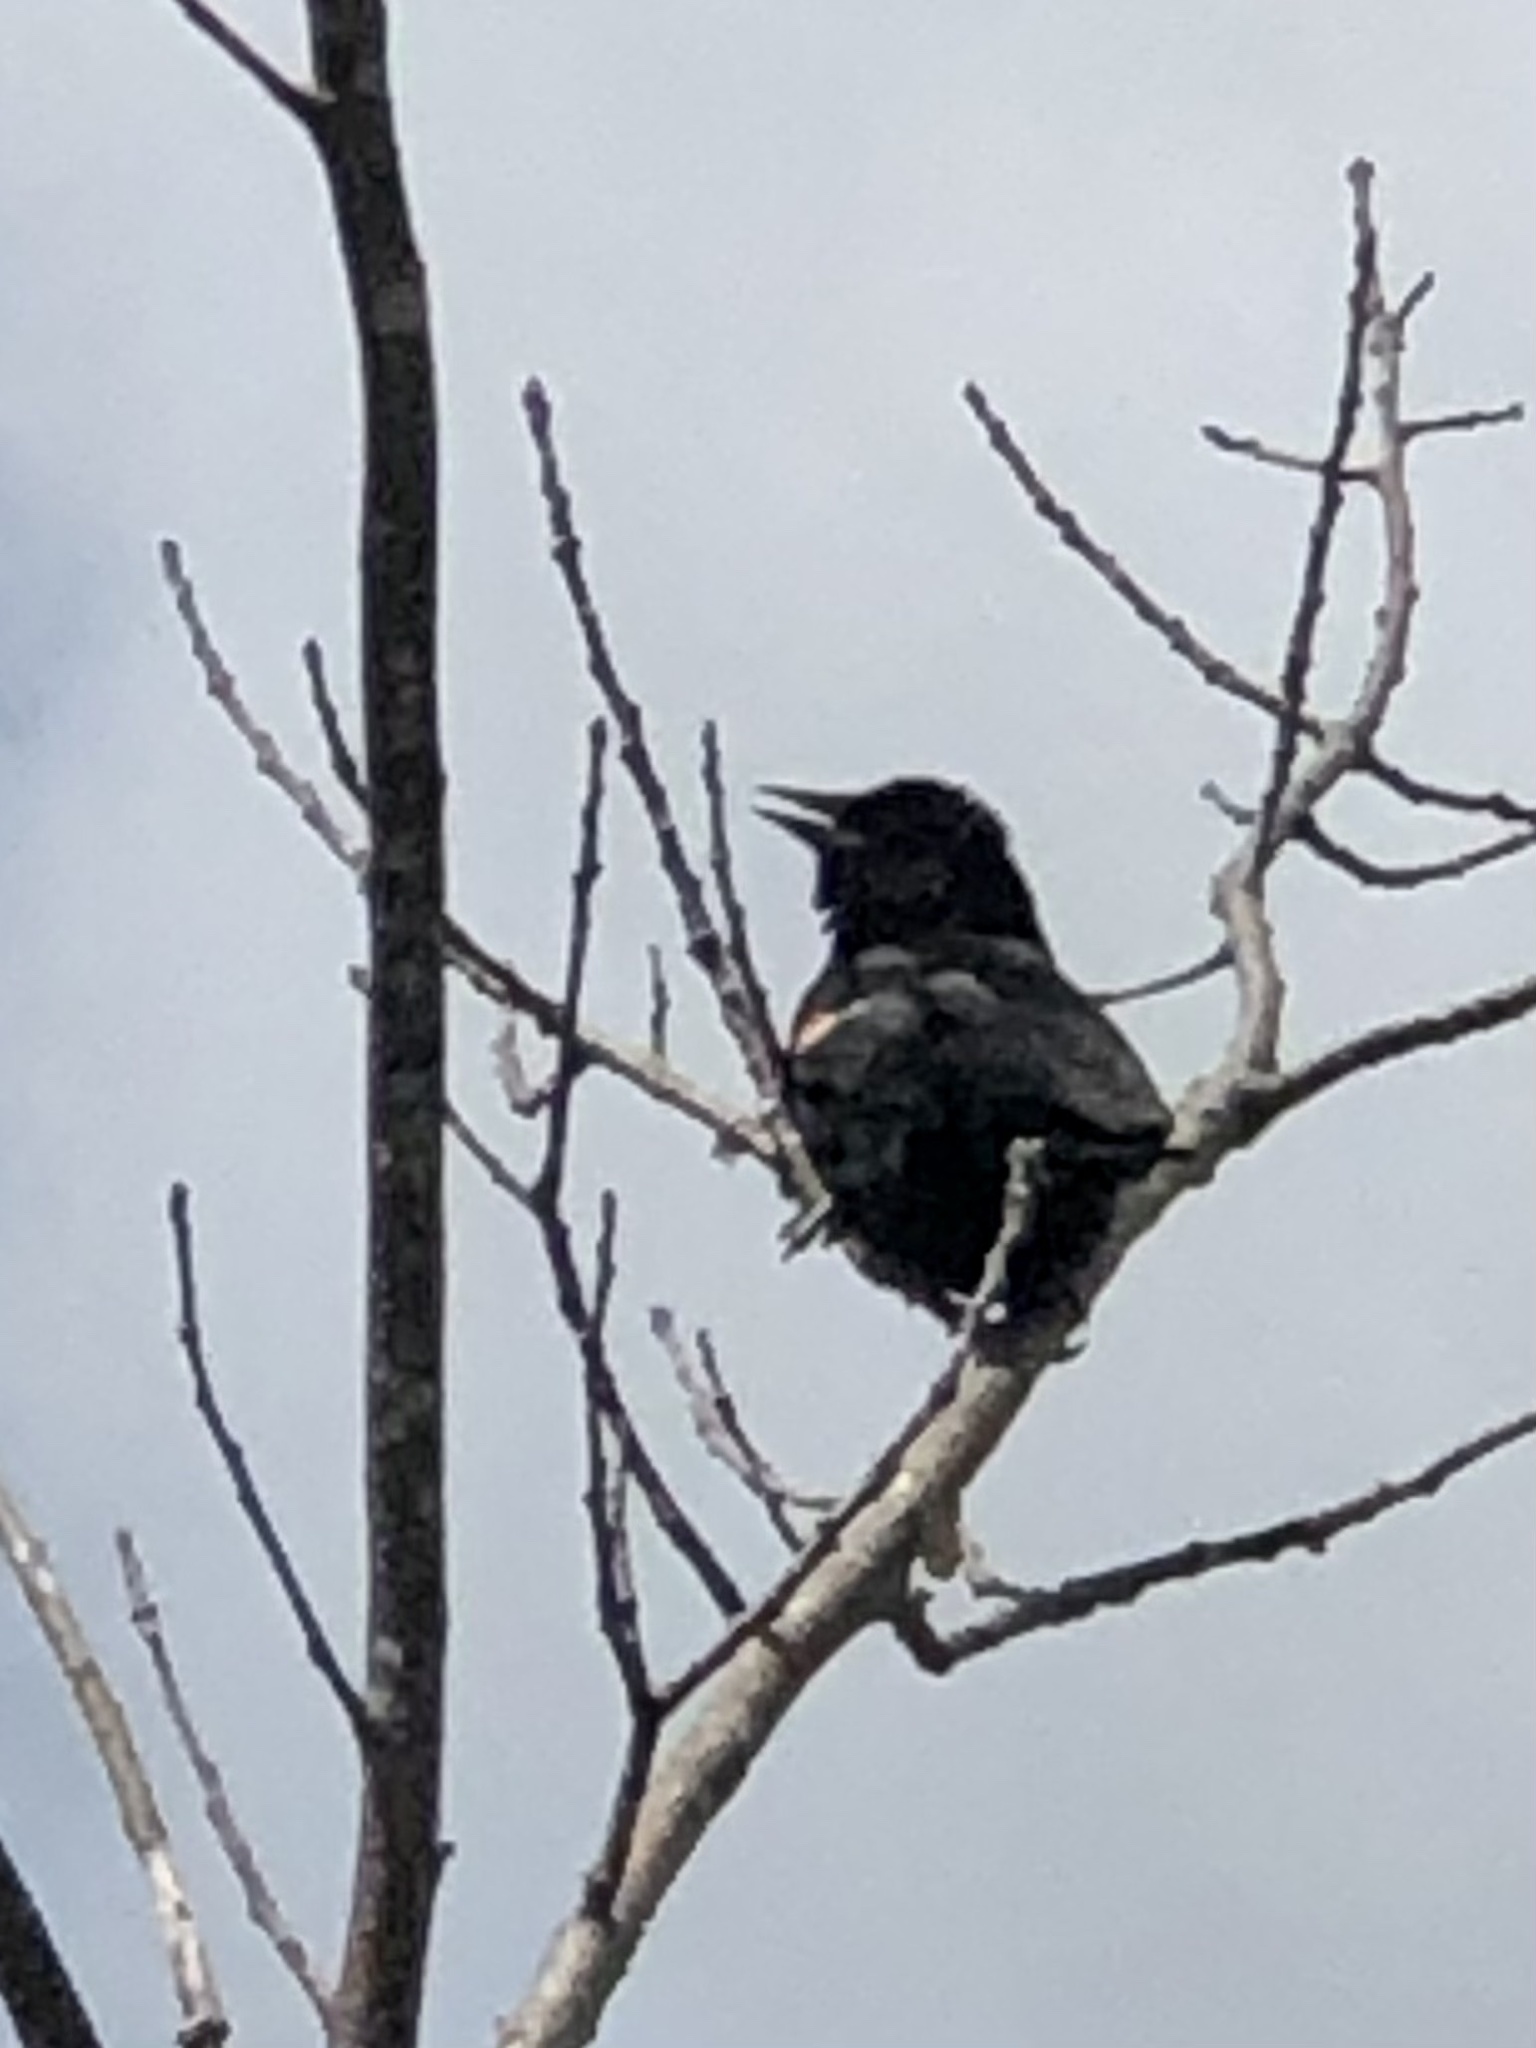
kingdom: Animalia
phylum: Chordata
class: Aves
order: Passeriformes
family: Icteridae
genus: Agelaius
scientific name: Agelaius phoeniceus
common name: Red-winged blackbird
